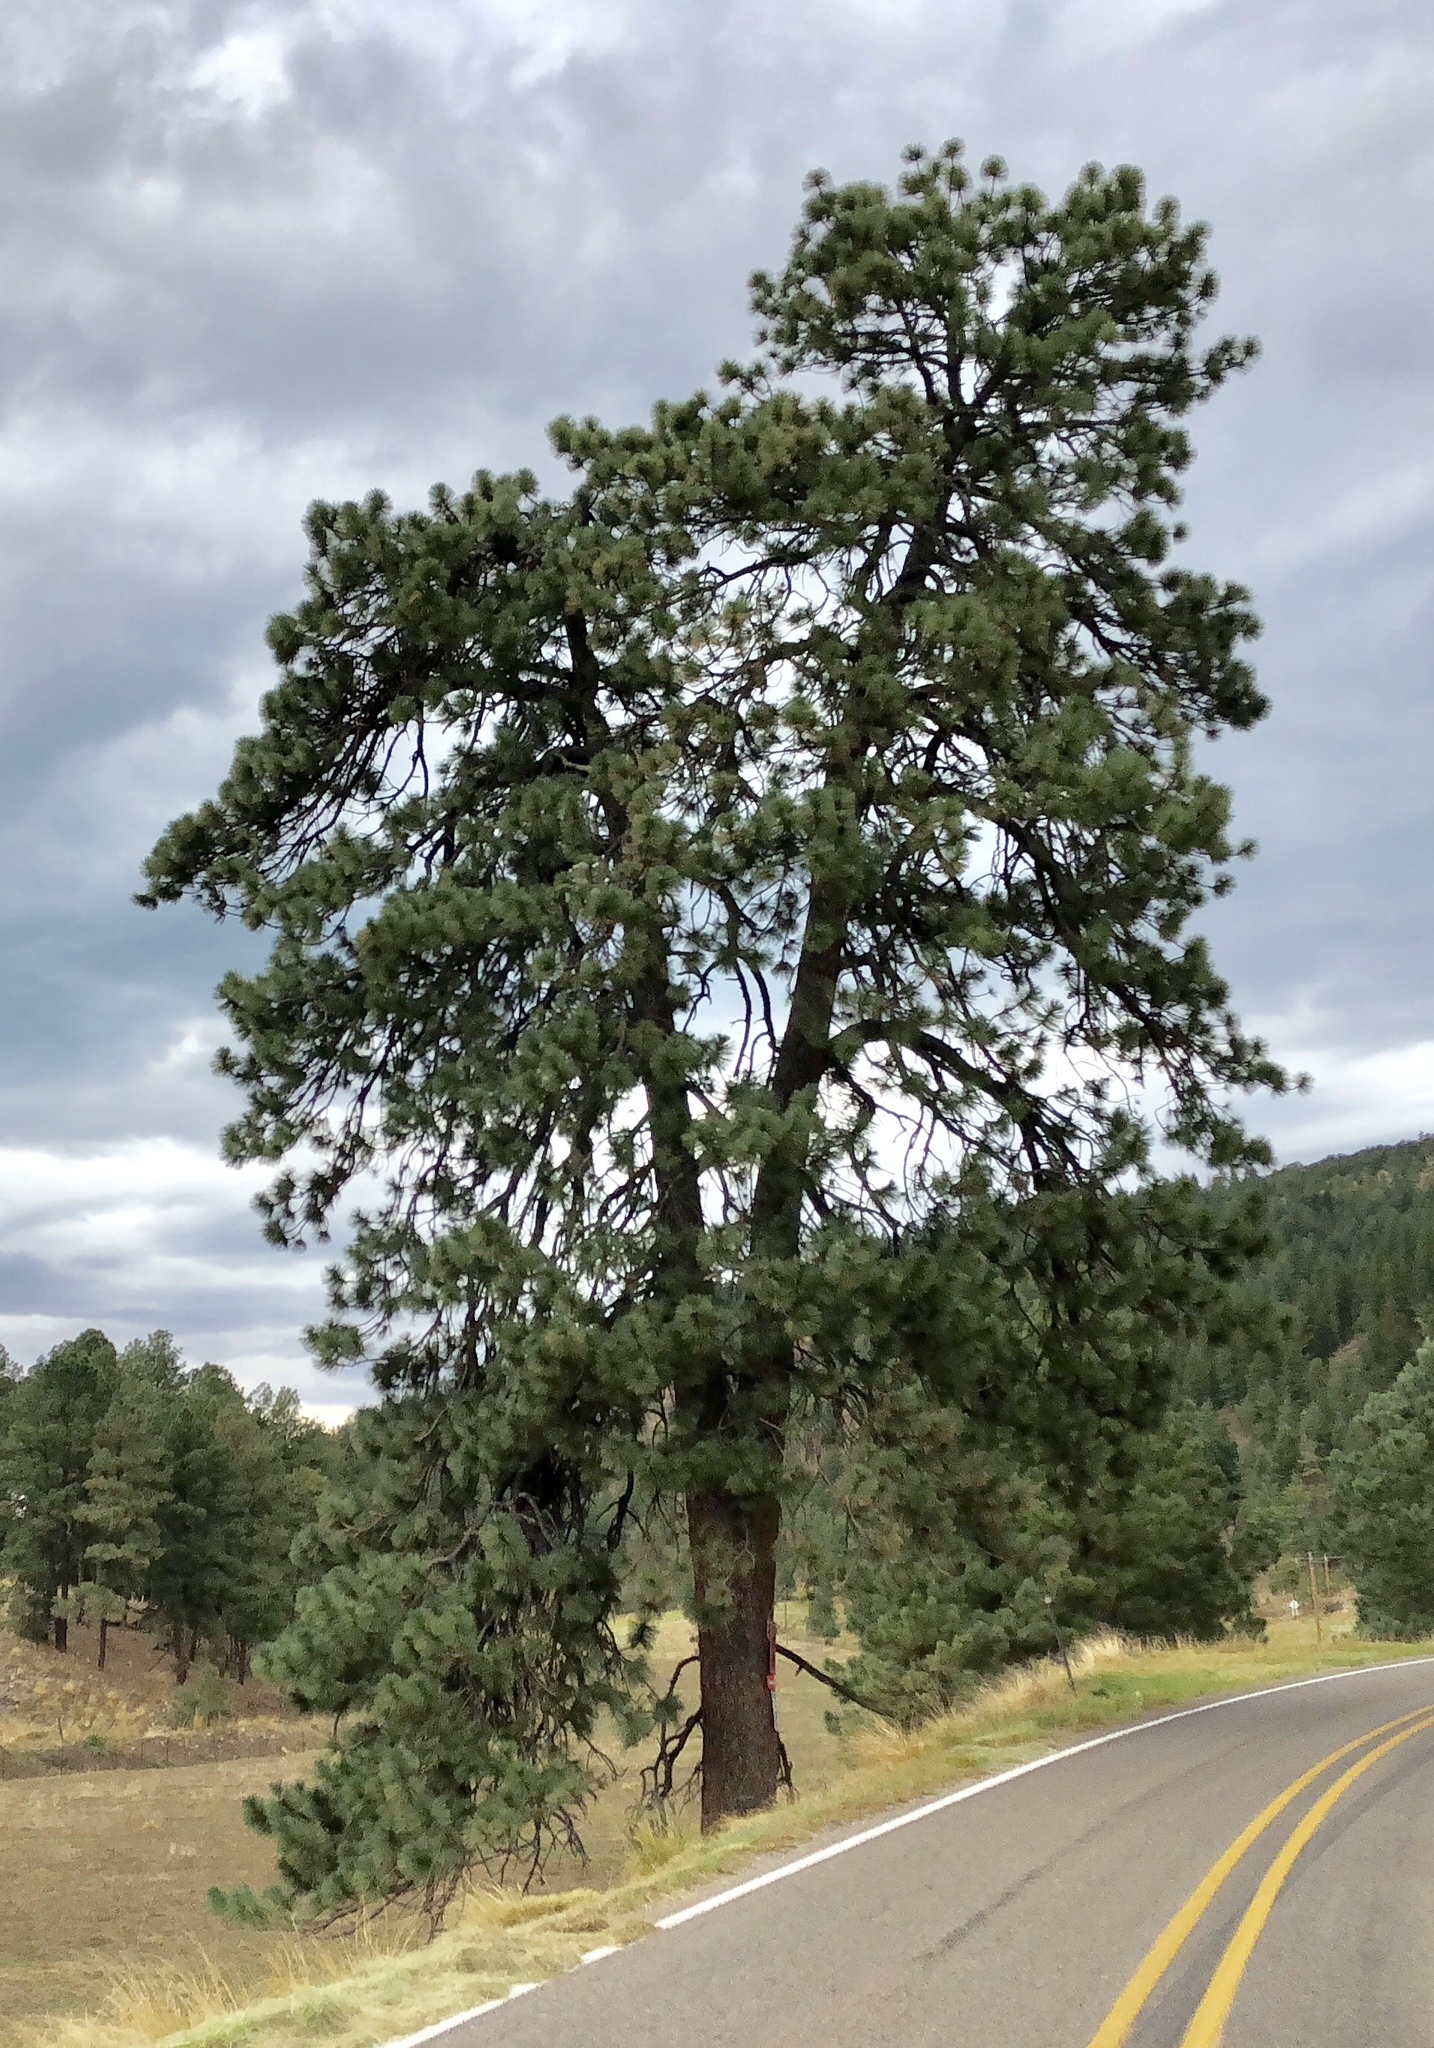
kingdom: Plantae
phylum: Tracheophyta
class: Pinopsida
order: Pinales
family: Pinaceae
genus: Pinus
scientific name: Pinus ponderosa
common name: Western yellow-pine
